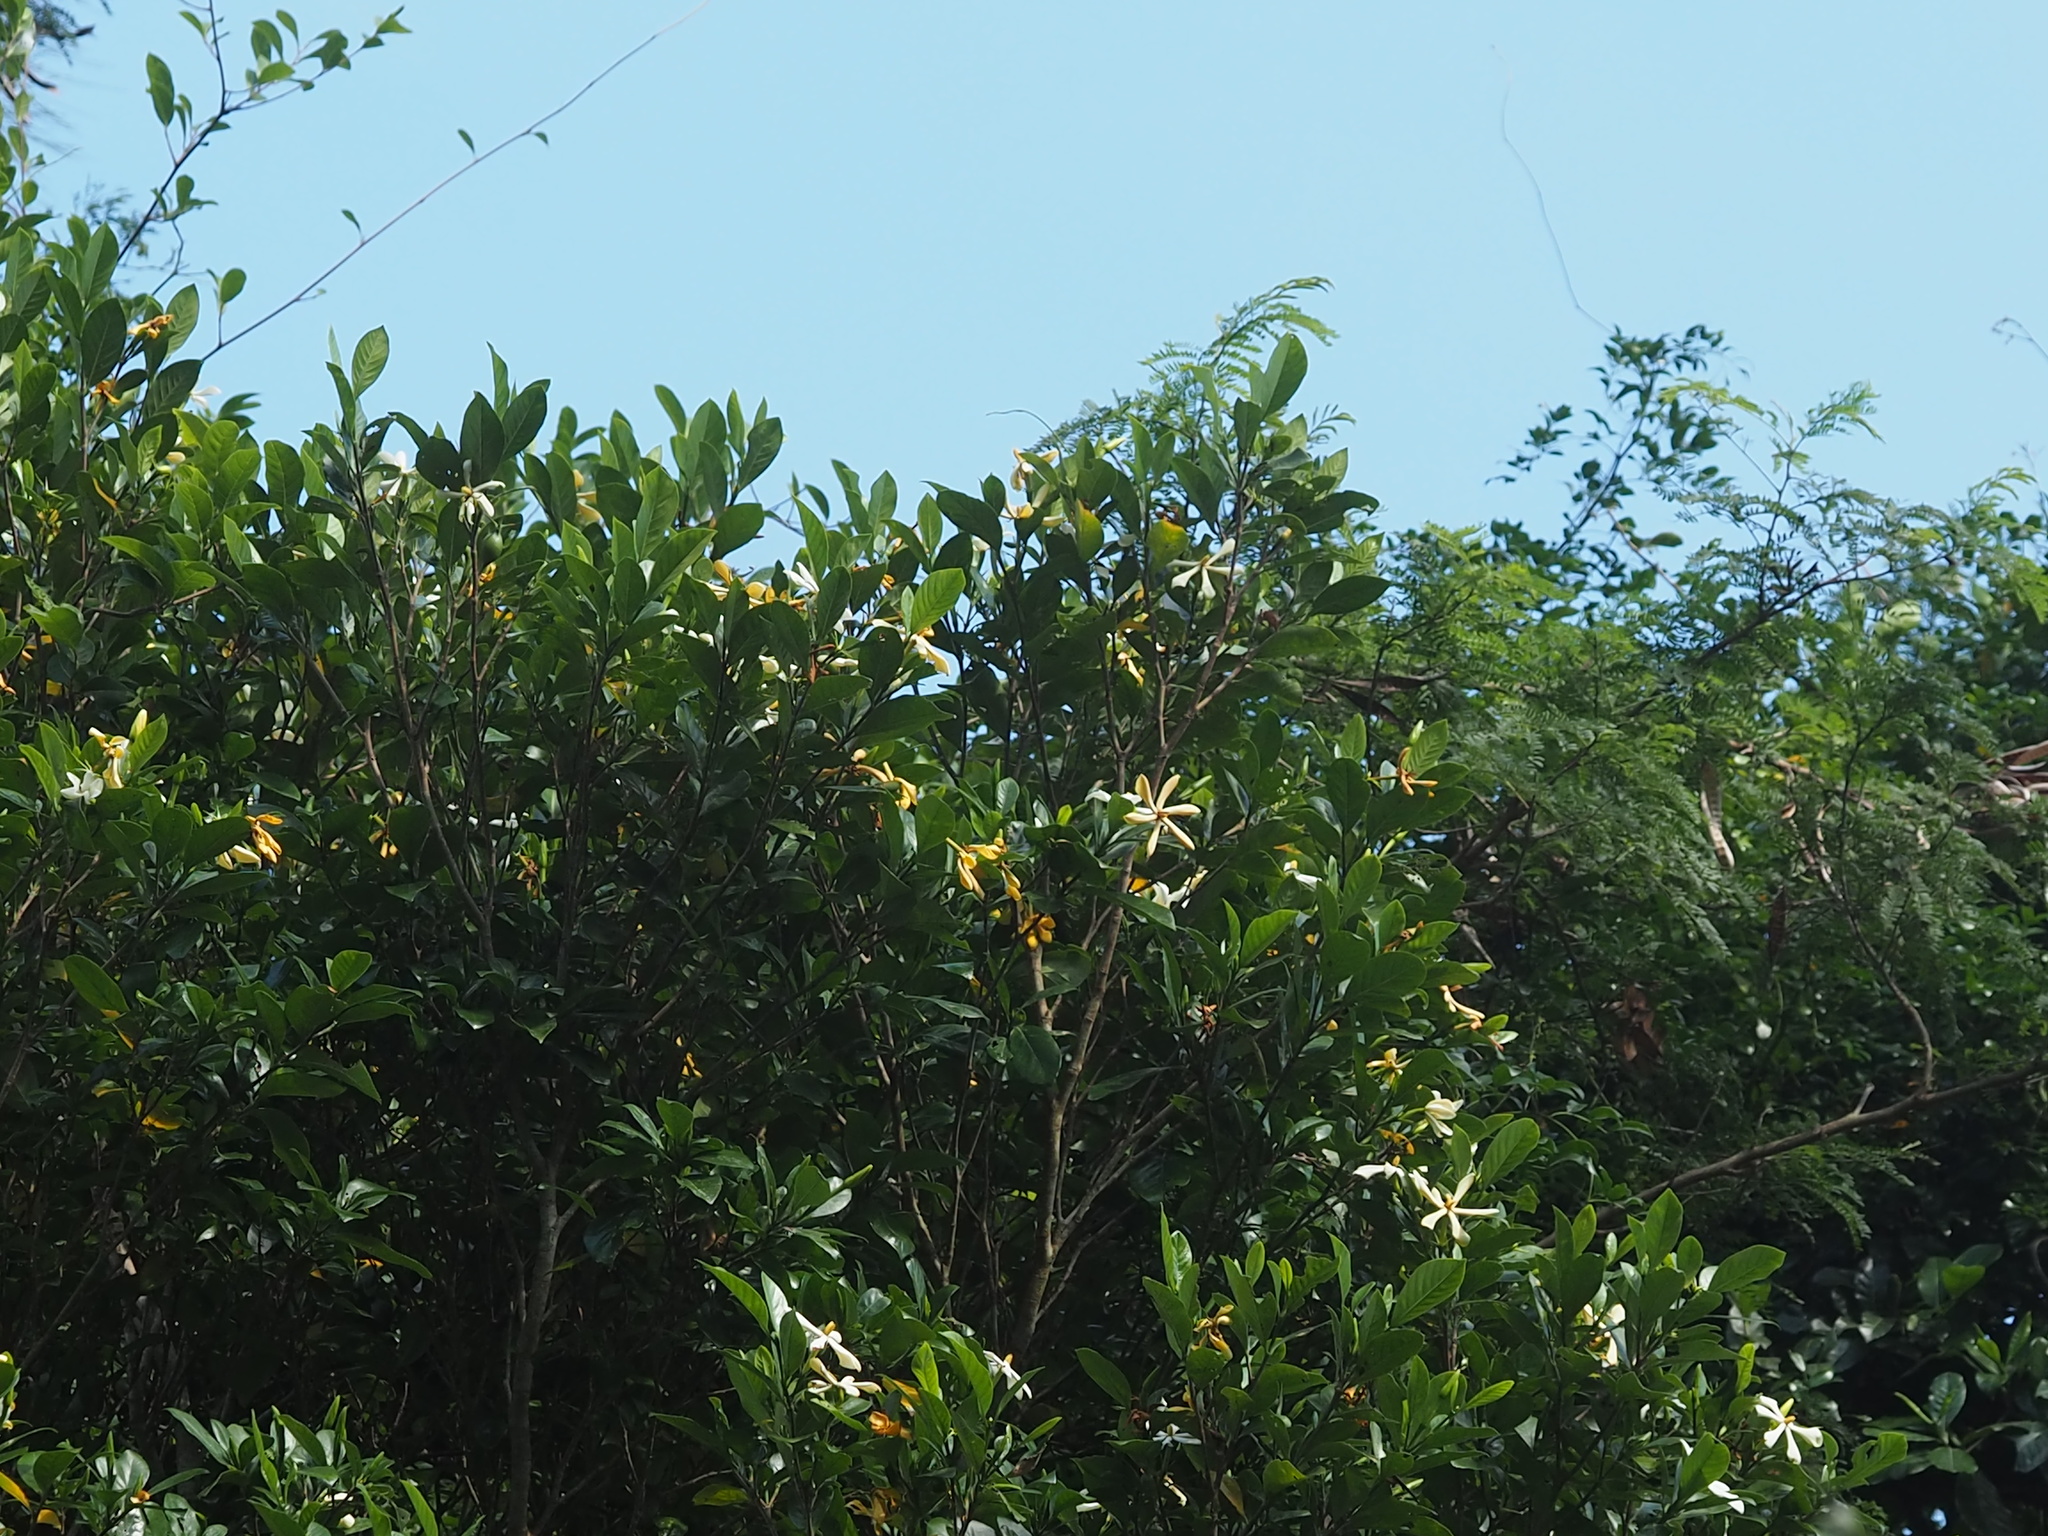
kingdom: Plantae
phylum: Tracheophyta
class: Magnoliopsida
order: Gentianales
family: Rubiaceae
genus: Gardenia
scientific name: Gardenia jasminoides
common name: Cape-jasmine
